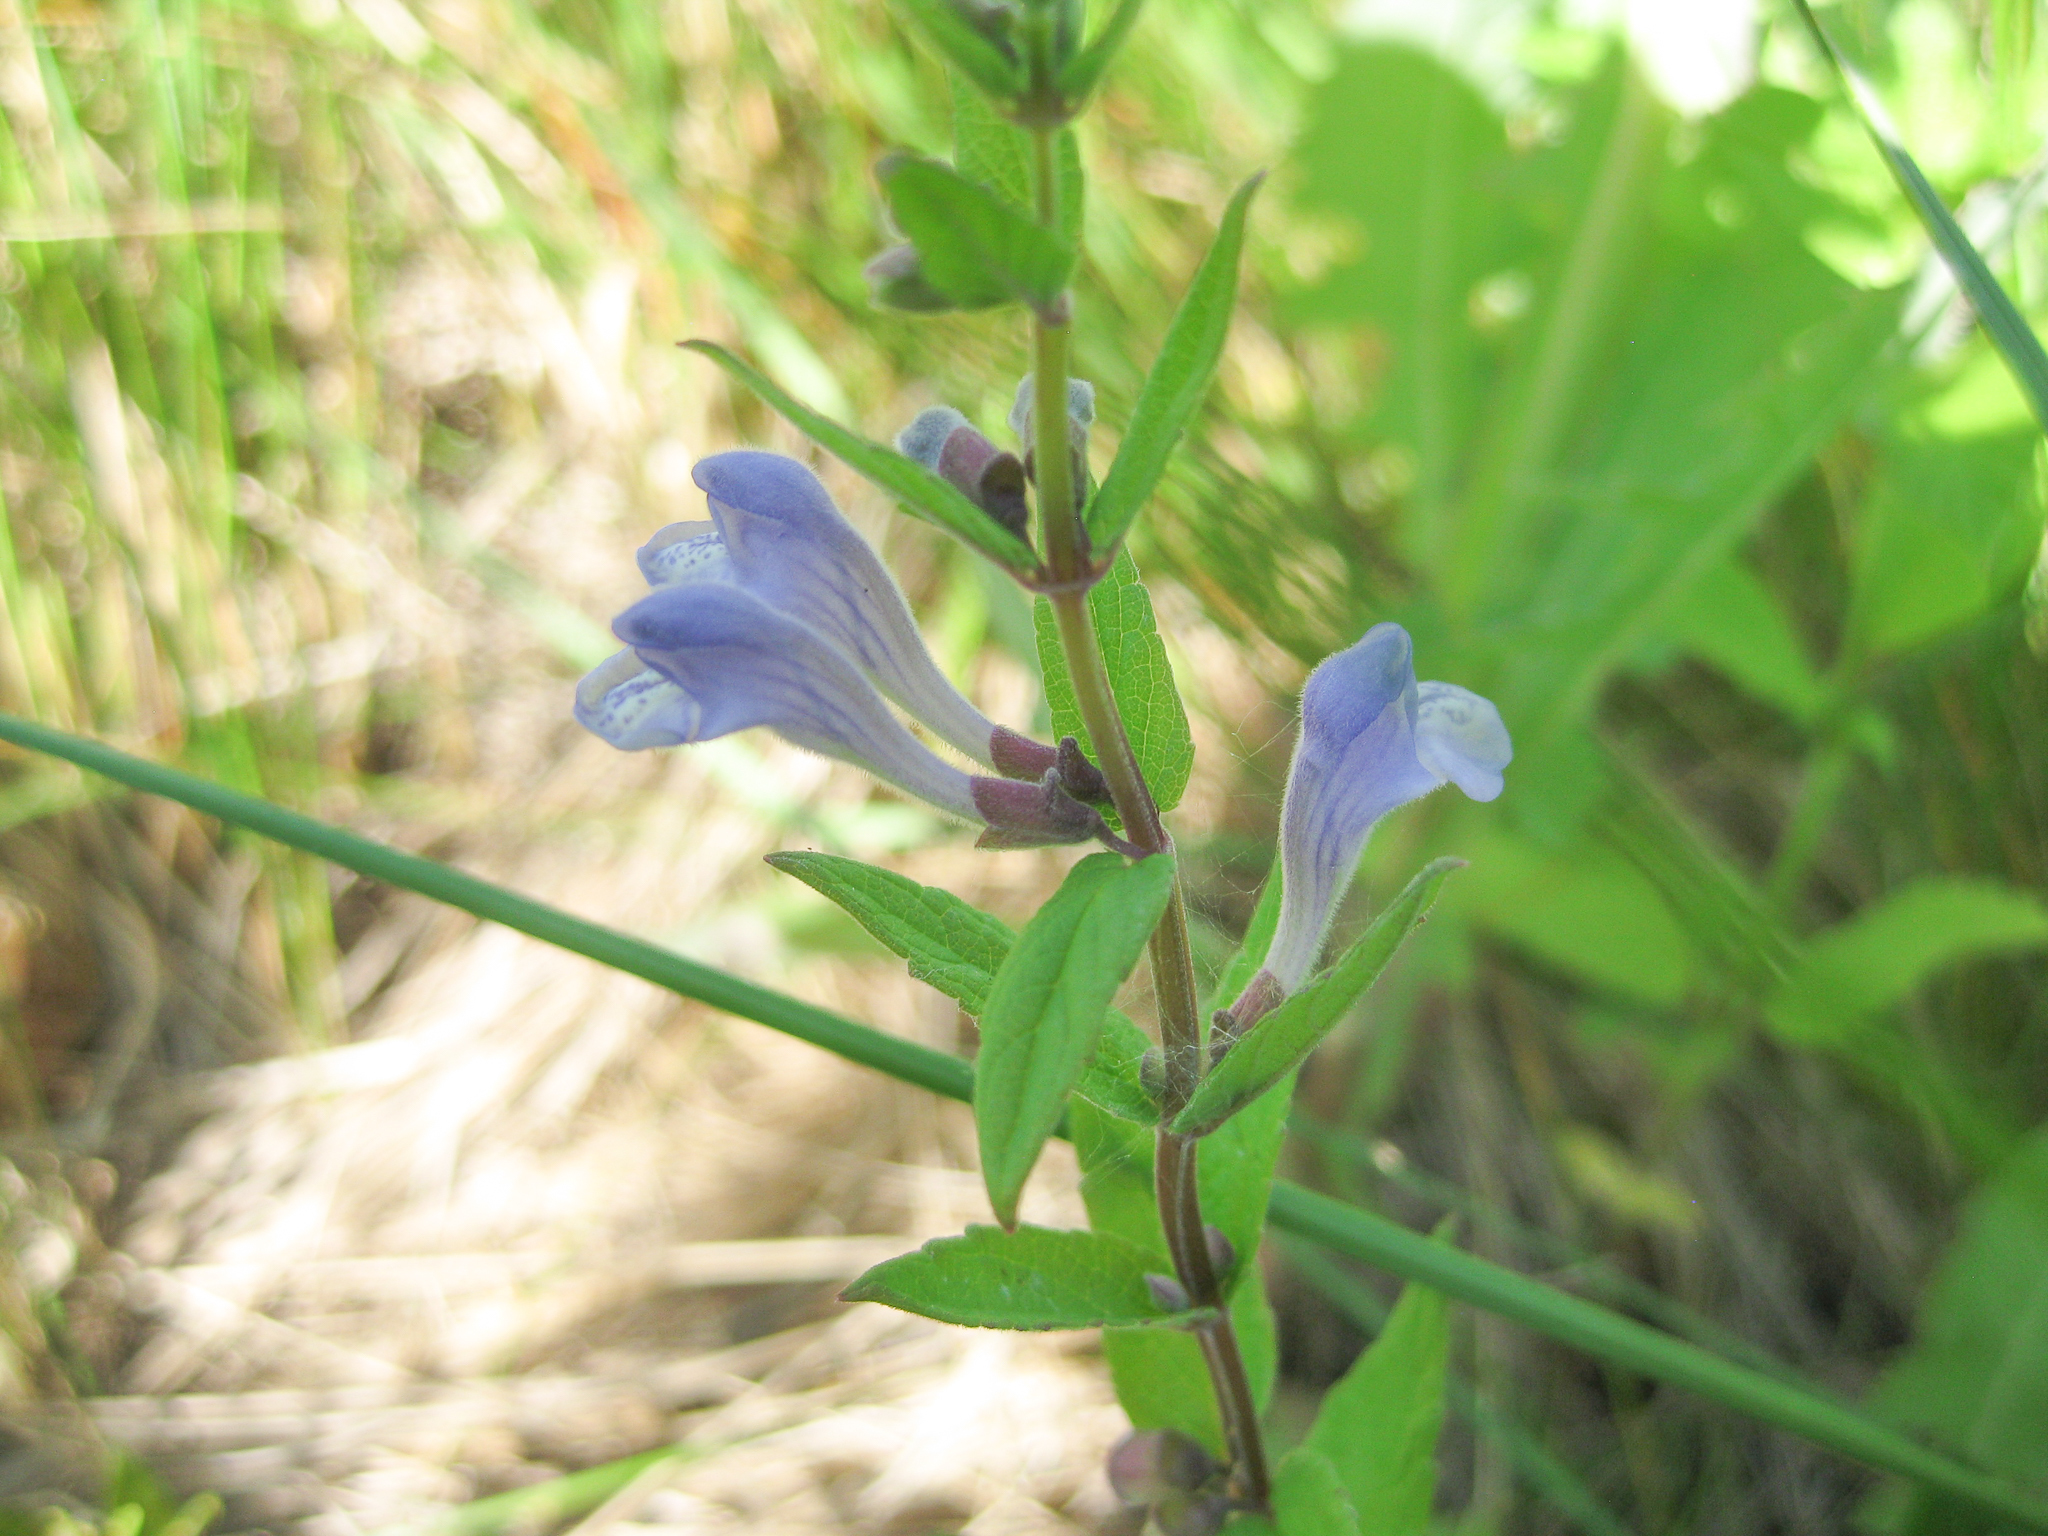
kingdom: Plantae
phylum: Tracheophyta
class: Magnoliopsida
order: Lamiales
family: Lamiaceae
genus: Scutellaria
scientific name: Scutellaria galericulata
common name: Skullcap
